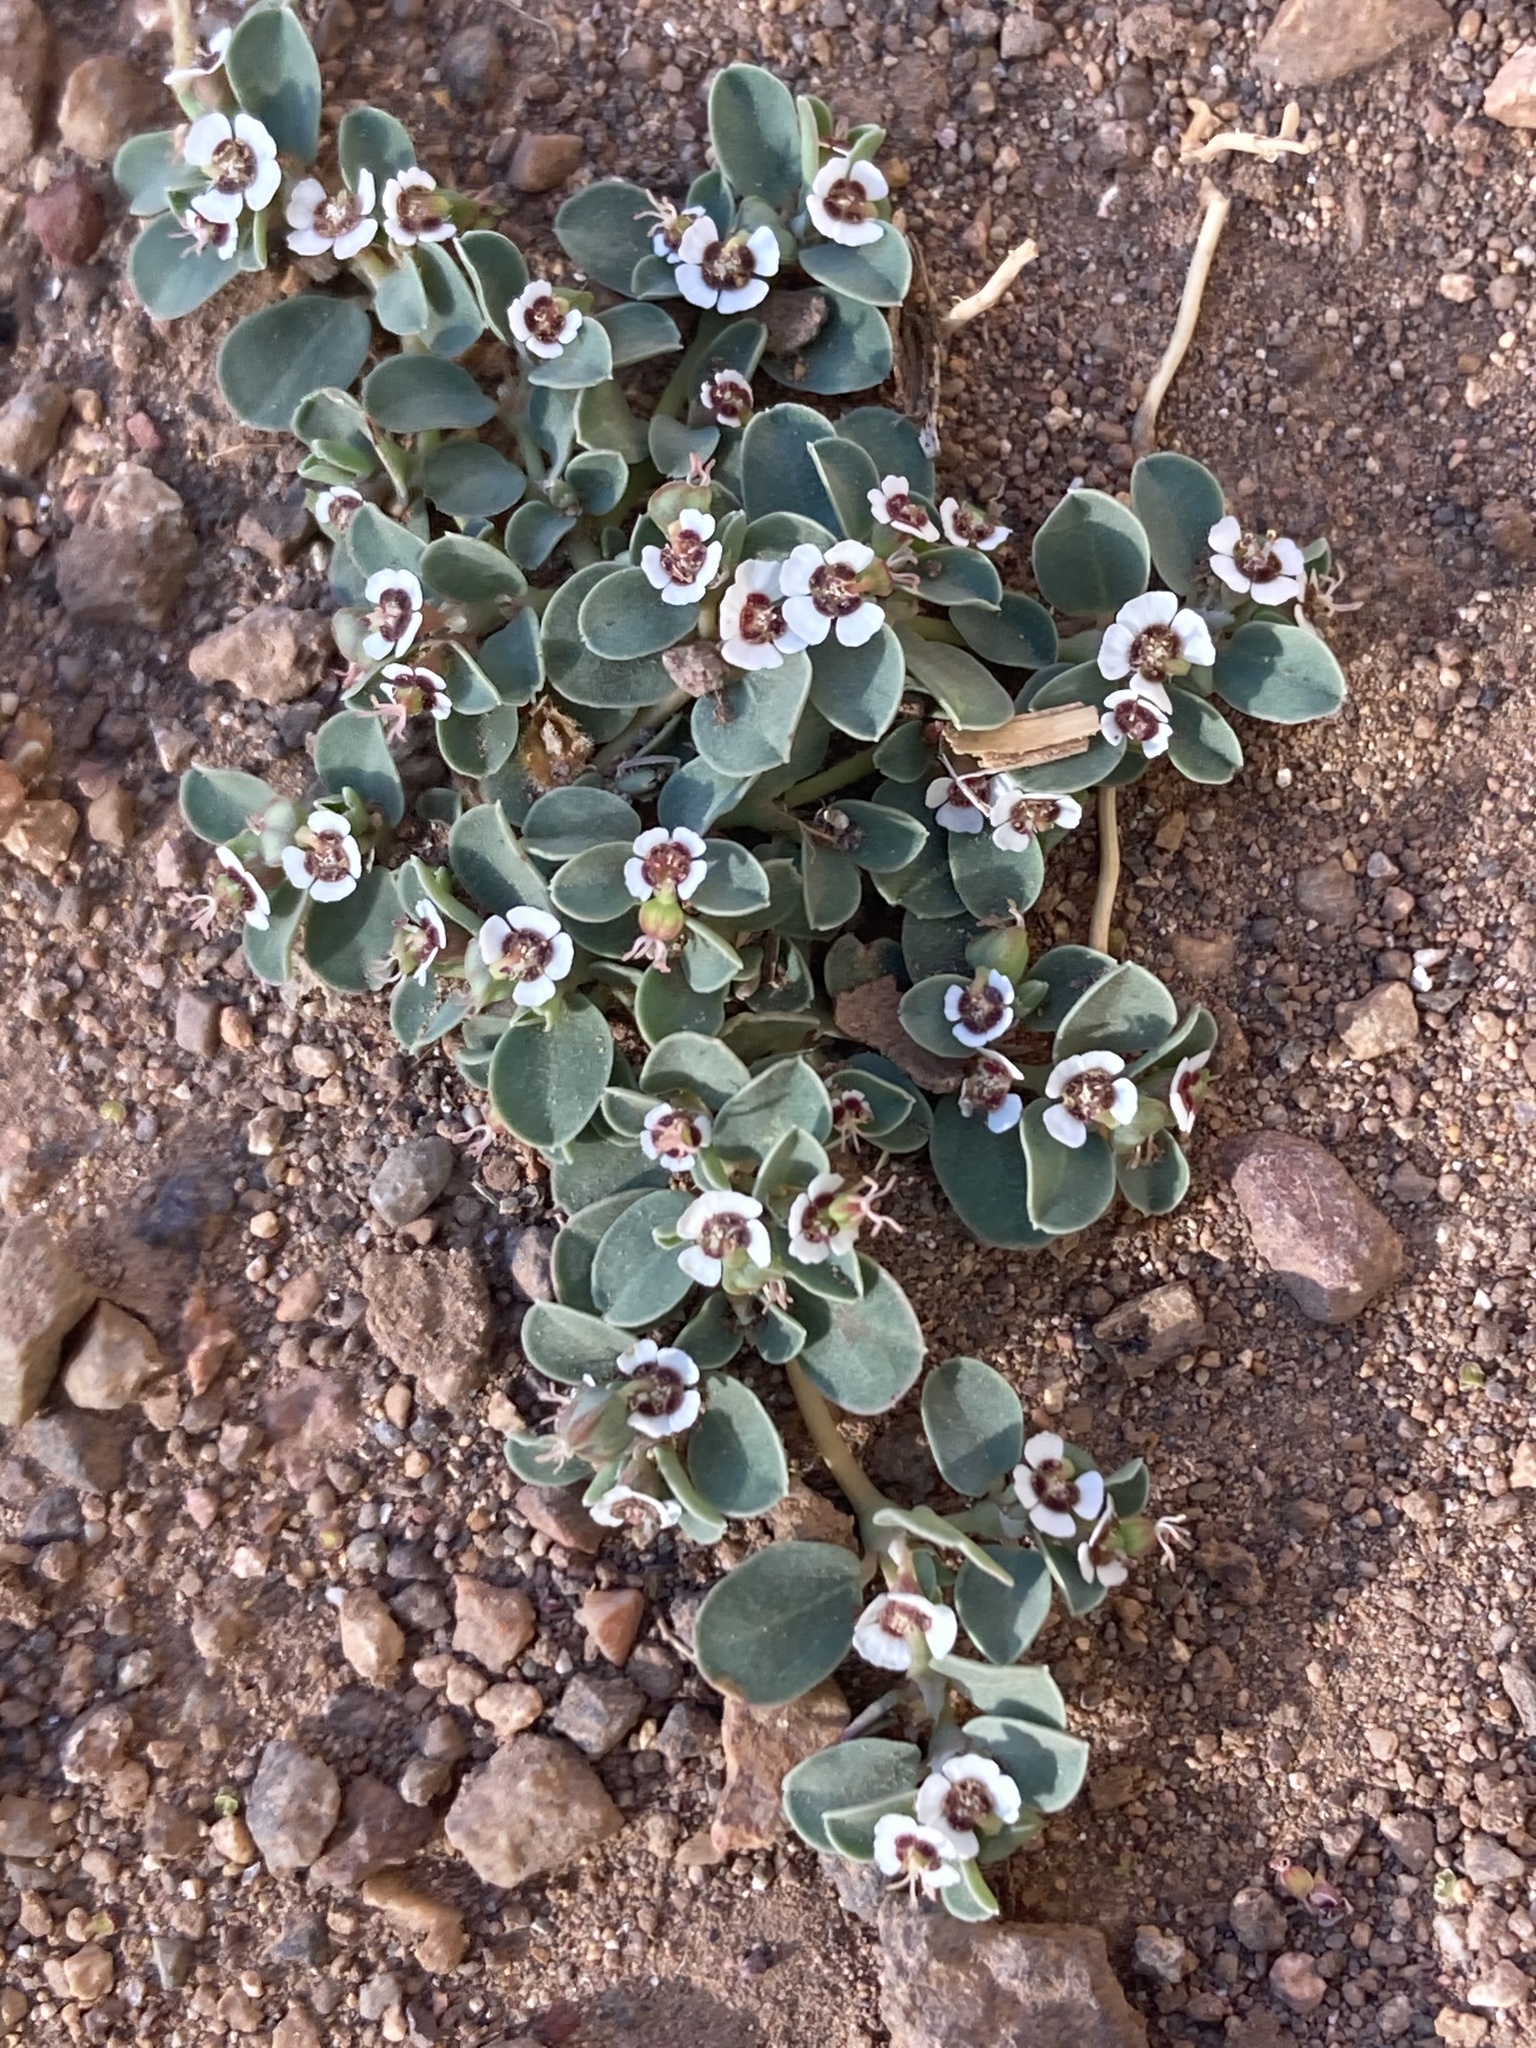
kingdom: Plantae
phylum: Tracheophyta
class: Magnoliopsida
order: Malpighiales
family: Euphorbiaceae
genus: Euphorbia
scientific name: Euphorbia albomarginata
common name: Whitemargin sandmat
